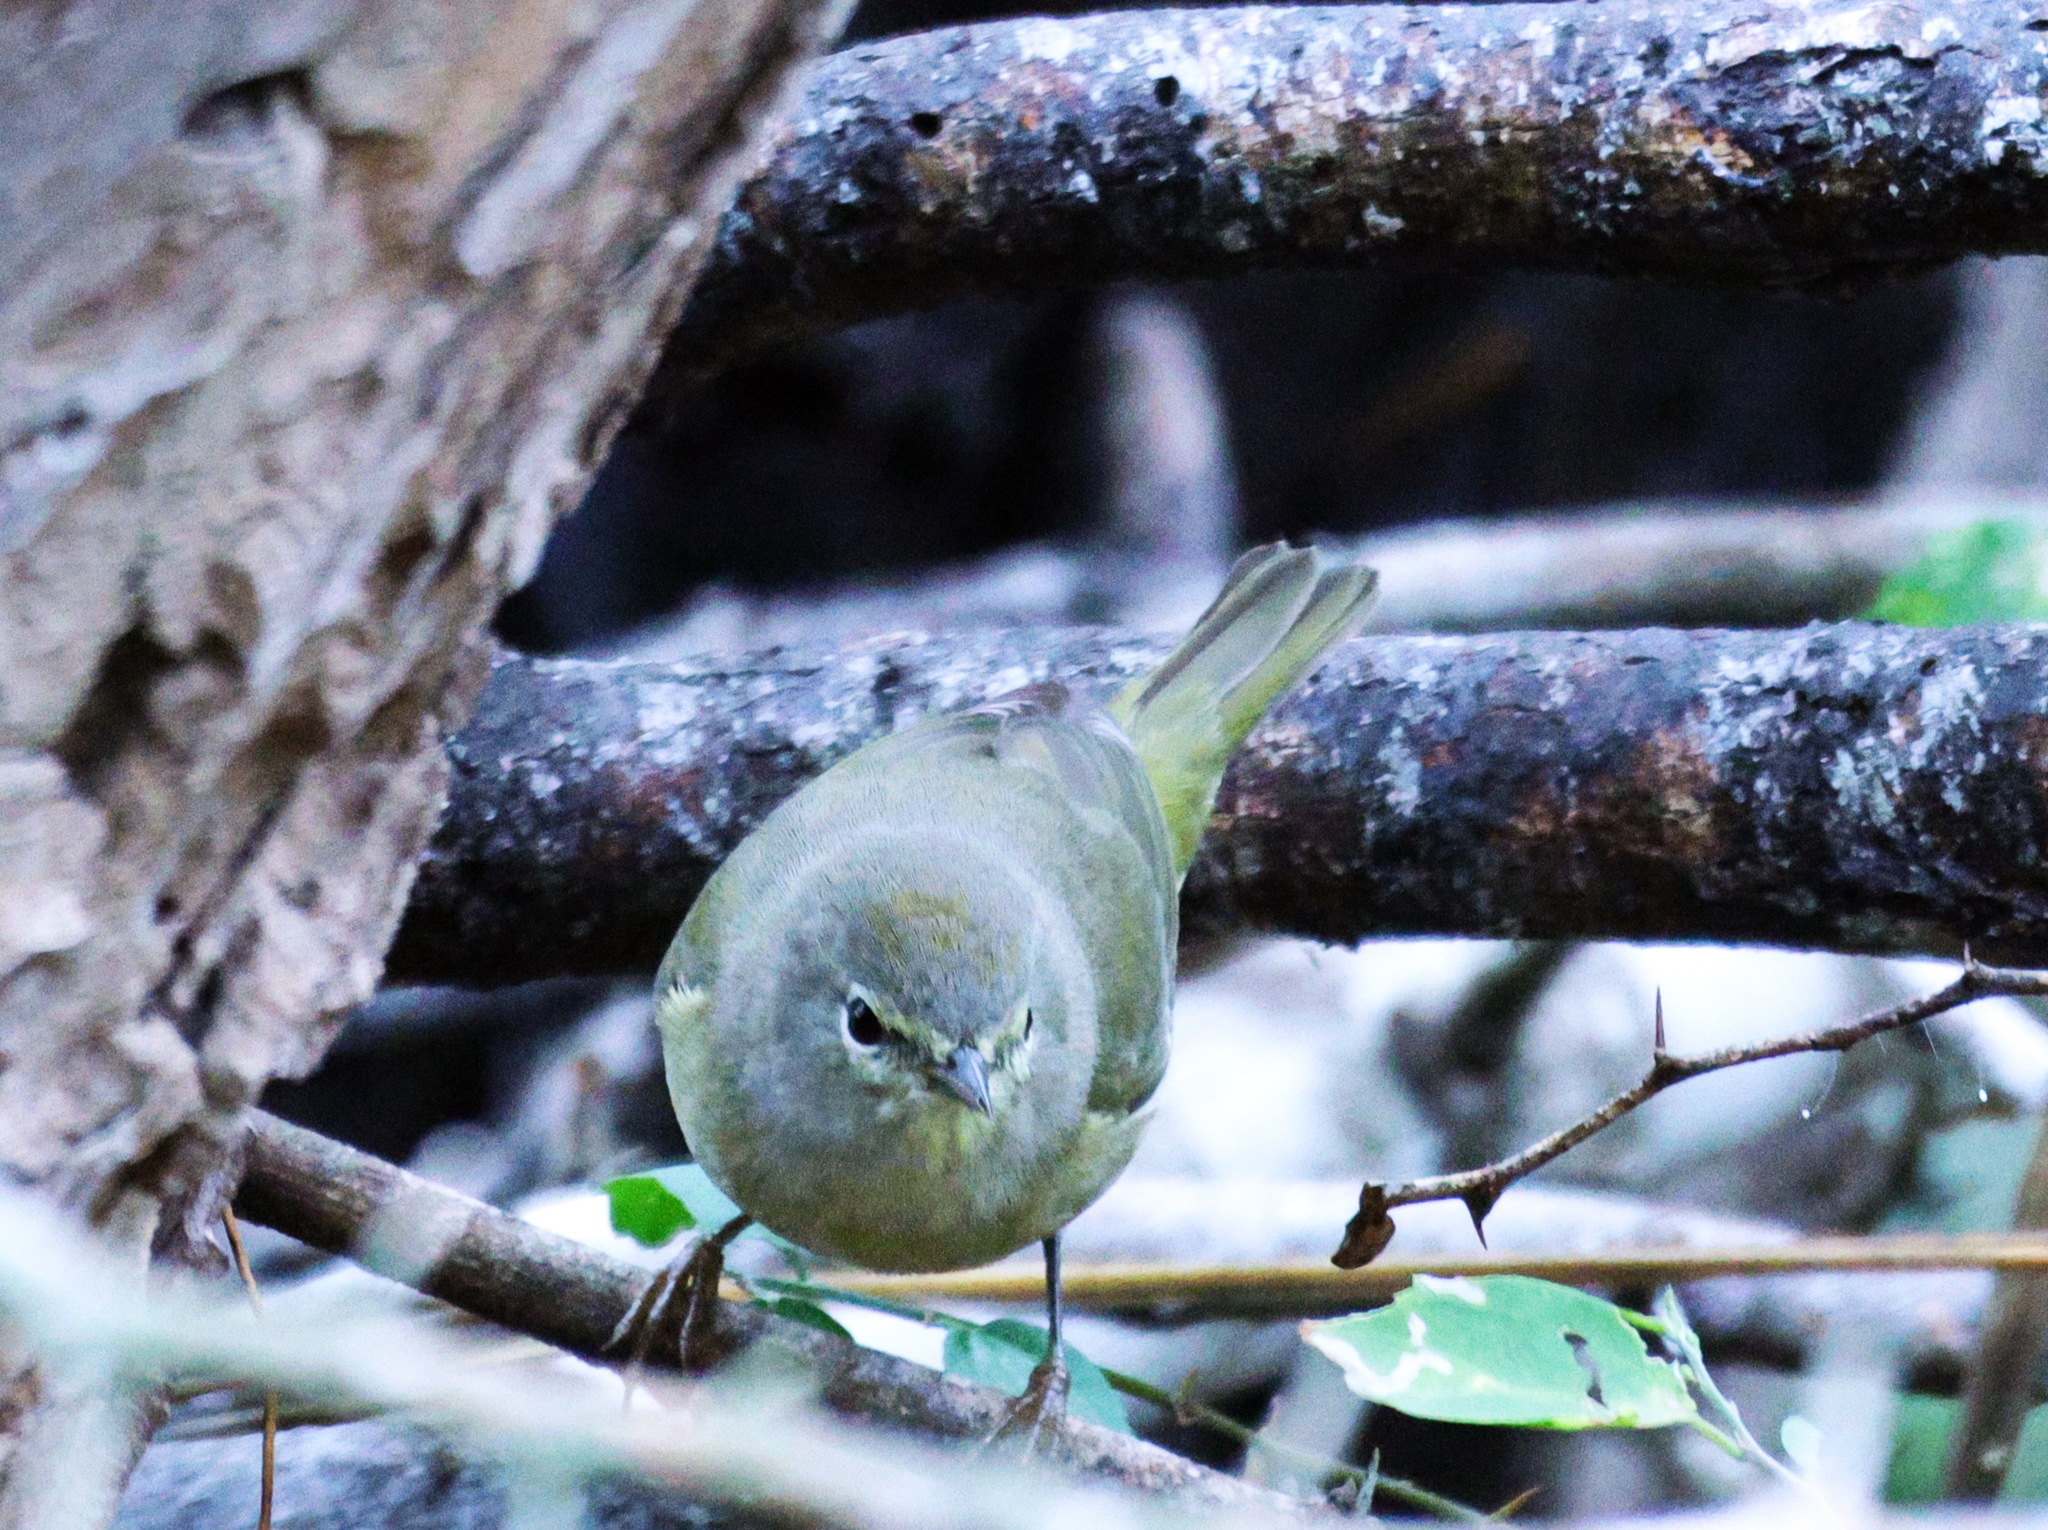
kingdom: Animalia
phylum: Chordata
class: Aves
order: Passeriformes
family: Parulidae
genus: Leiothlypis
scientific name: Leiothlypis celata
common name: Orange-crowned warbler
